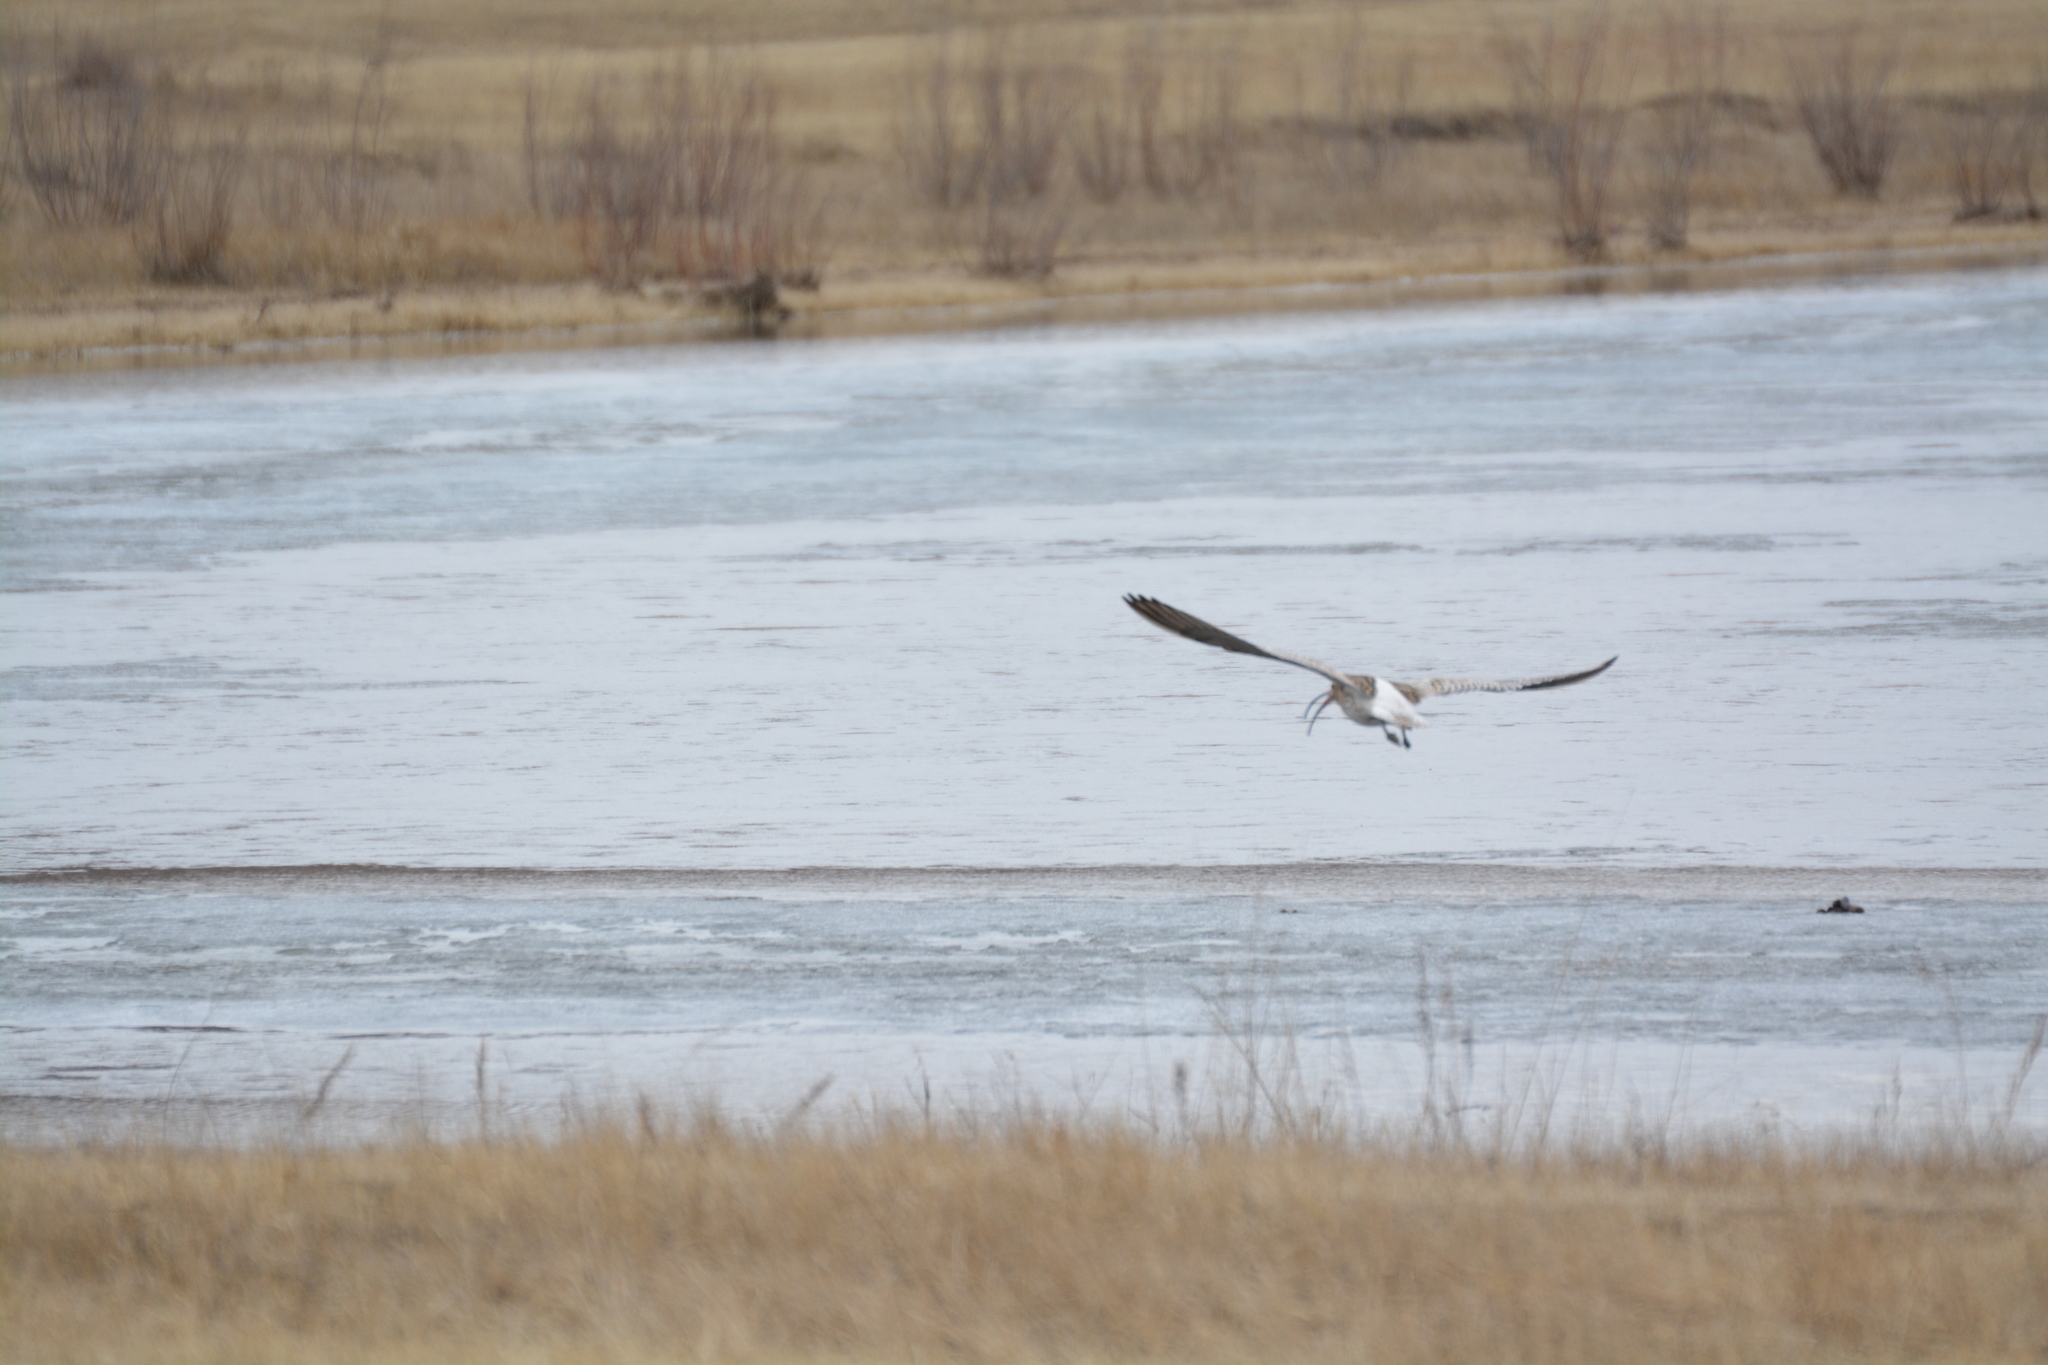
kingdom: Animalia
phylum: Chordata
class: Aves
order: Charadriiformes
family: Scolopacidae
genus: Numenius
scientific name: Numenius arquata
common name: Eurasian curlew
